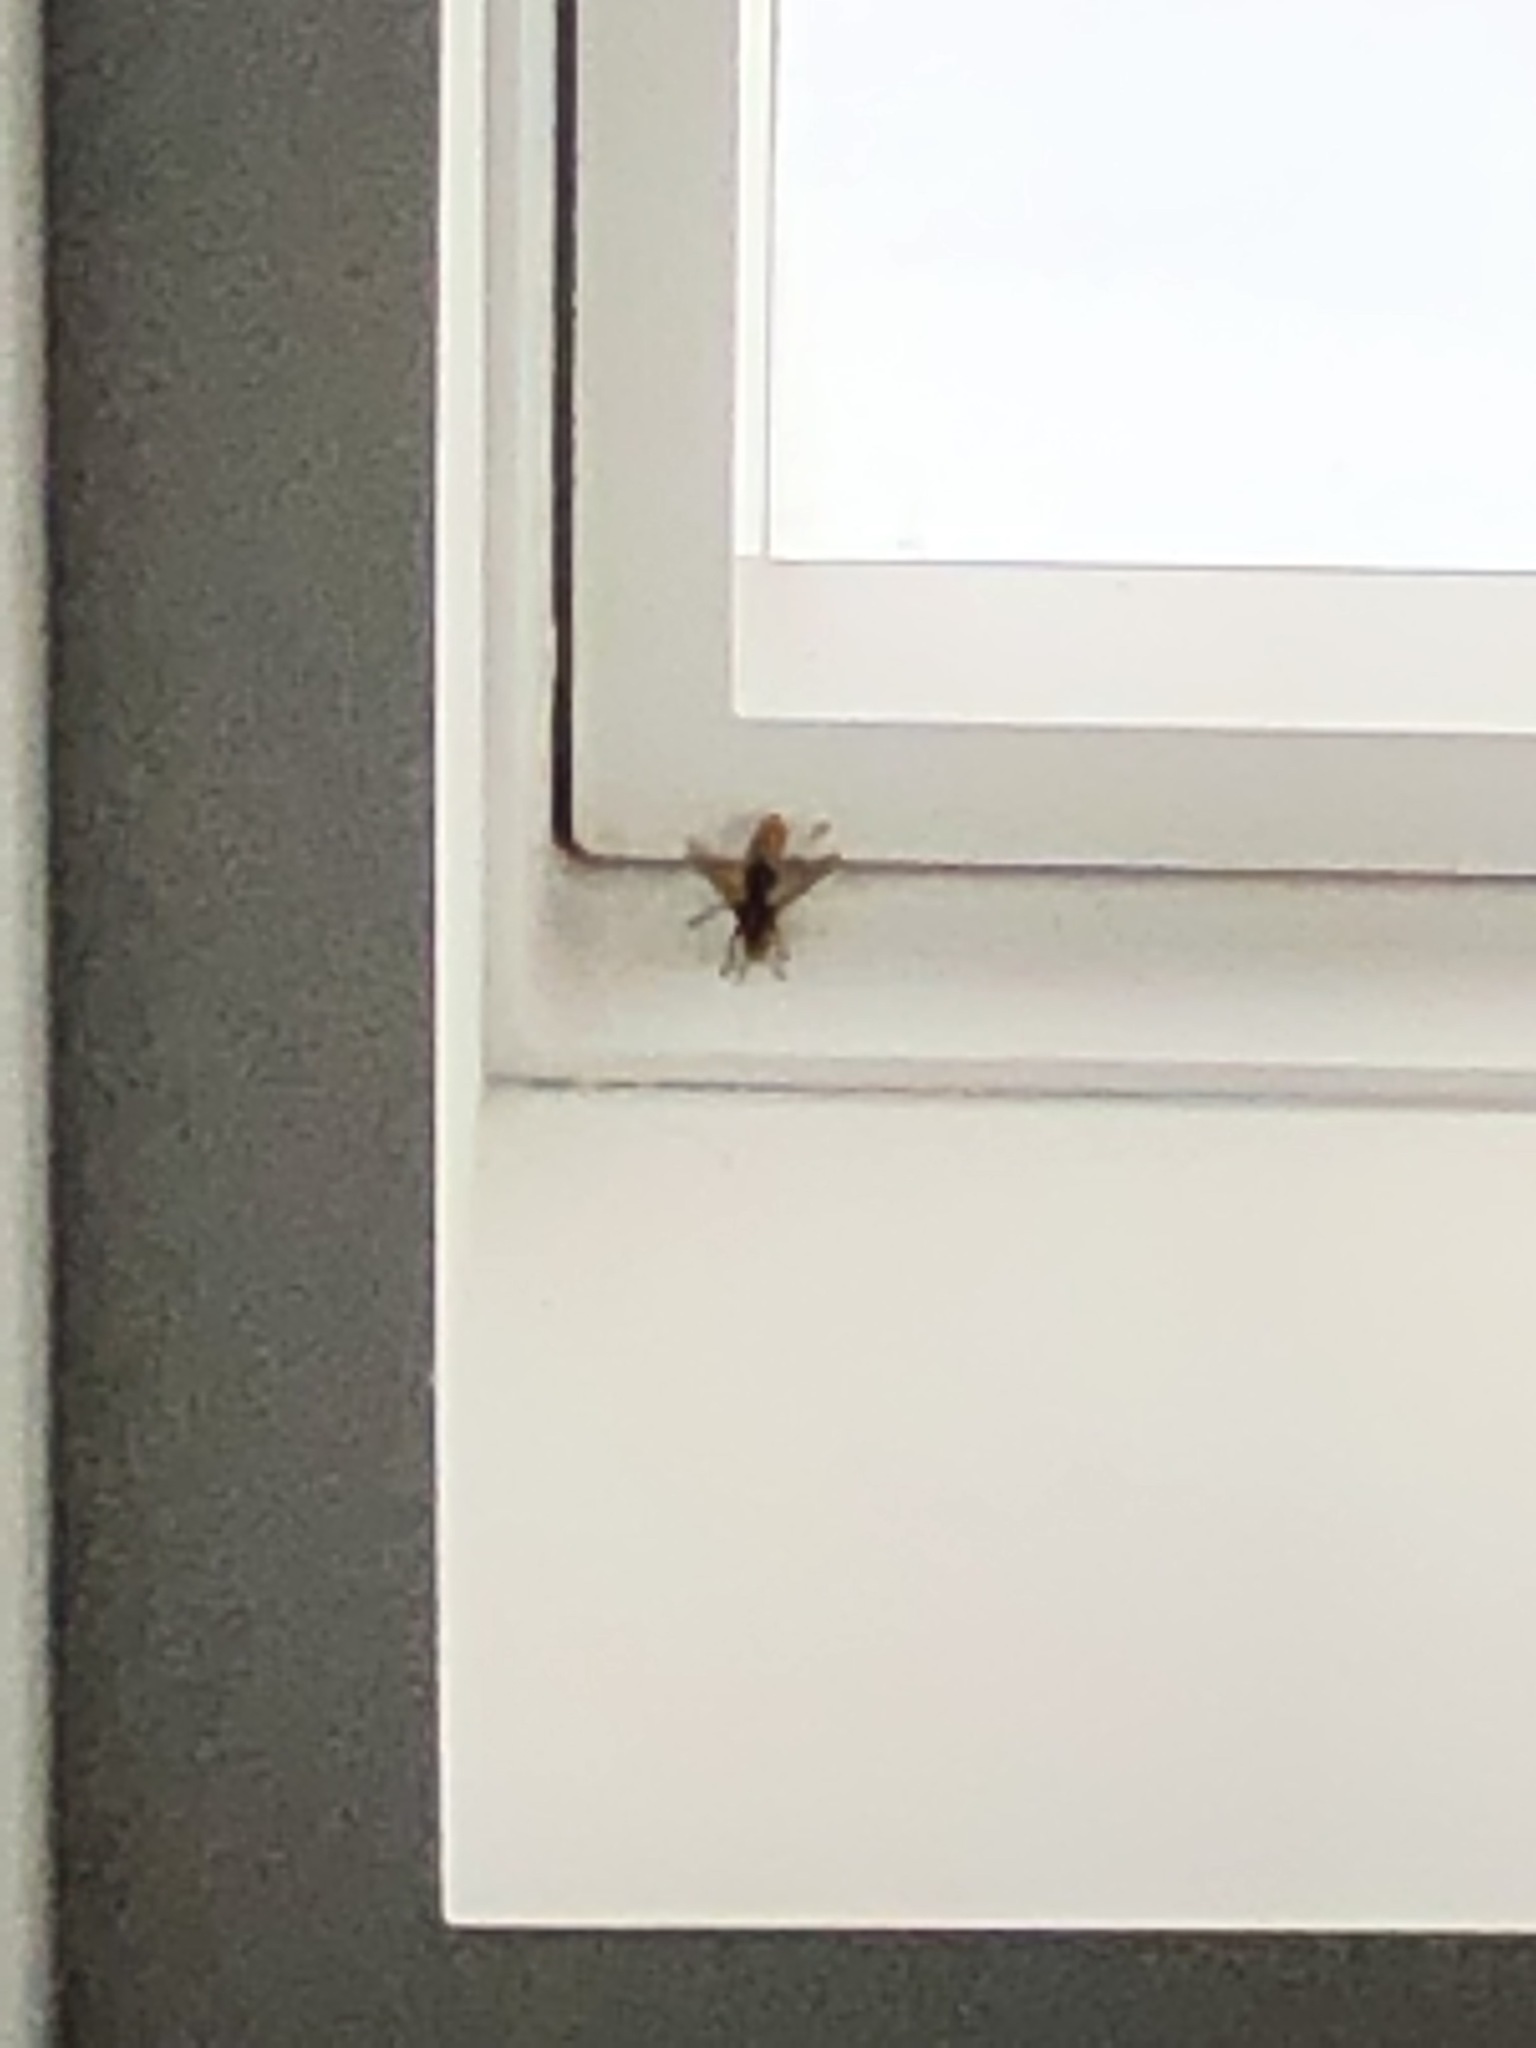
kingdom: Animalia
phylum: Arthropoda
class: Insecta
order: Hymenoptera
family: Vespidae
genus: Vespa
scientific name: Vespa crabro
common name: Hornet
